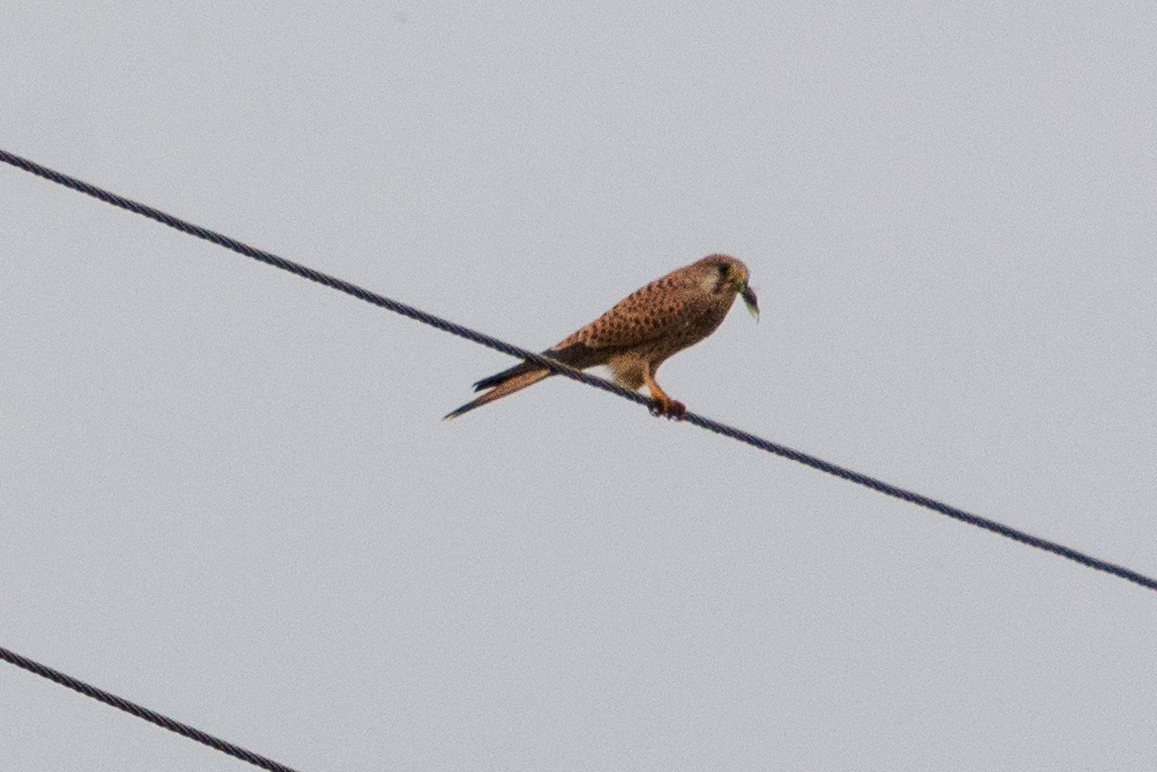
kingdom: Animalia
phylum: Chordata
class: Aves
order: Falconiformes
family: Falconidae
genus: Falco
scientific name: Falco tinnunculus
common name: Common kestrel
